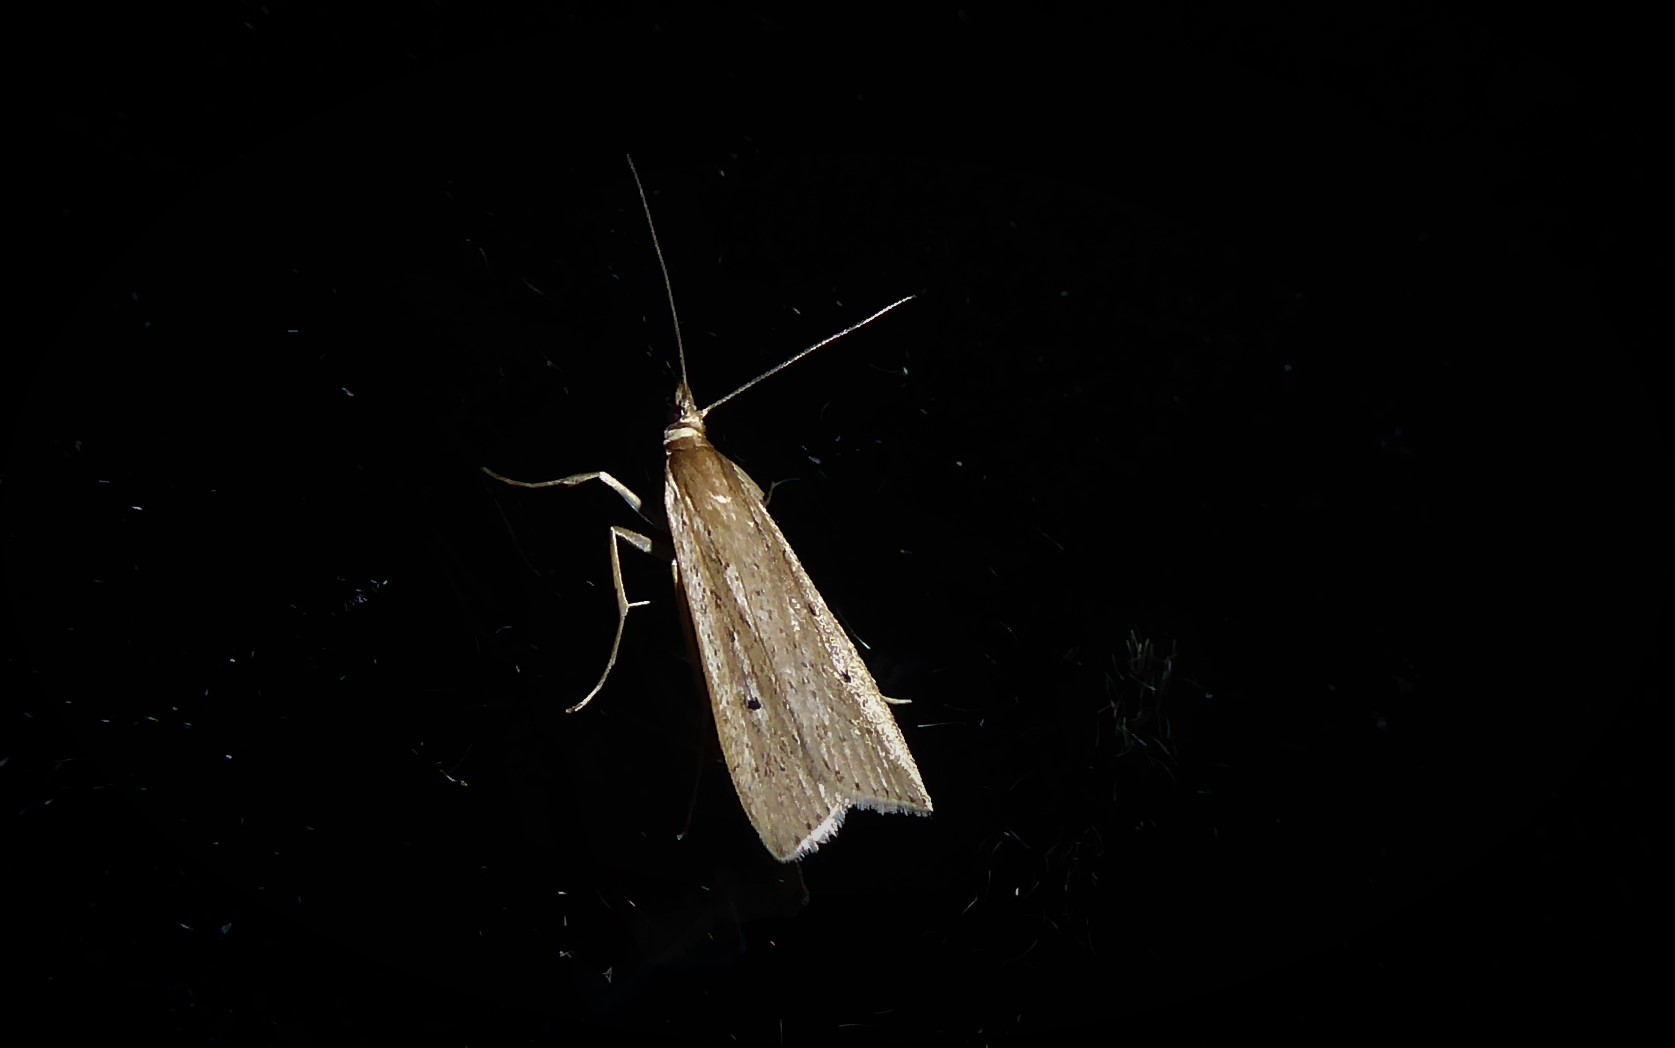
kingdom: Animalia
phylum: Arthropoda
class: Insecta
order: Lepidoptera
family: Crambidae
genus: Eudonia
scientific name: Eudonia sabulosella
